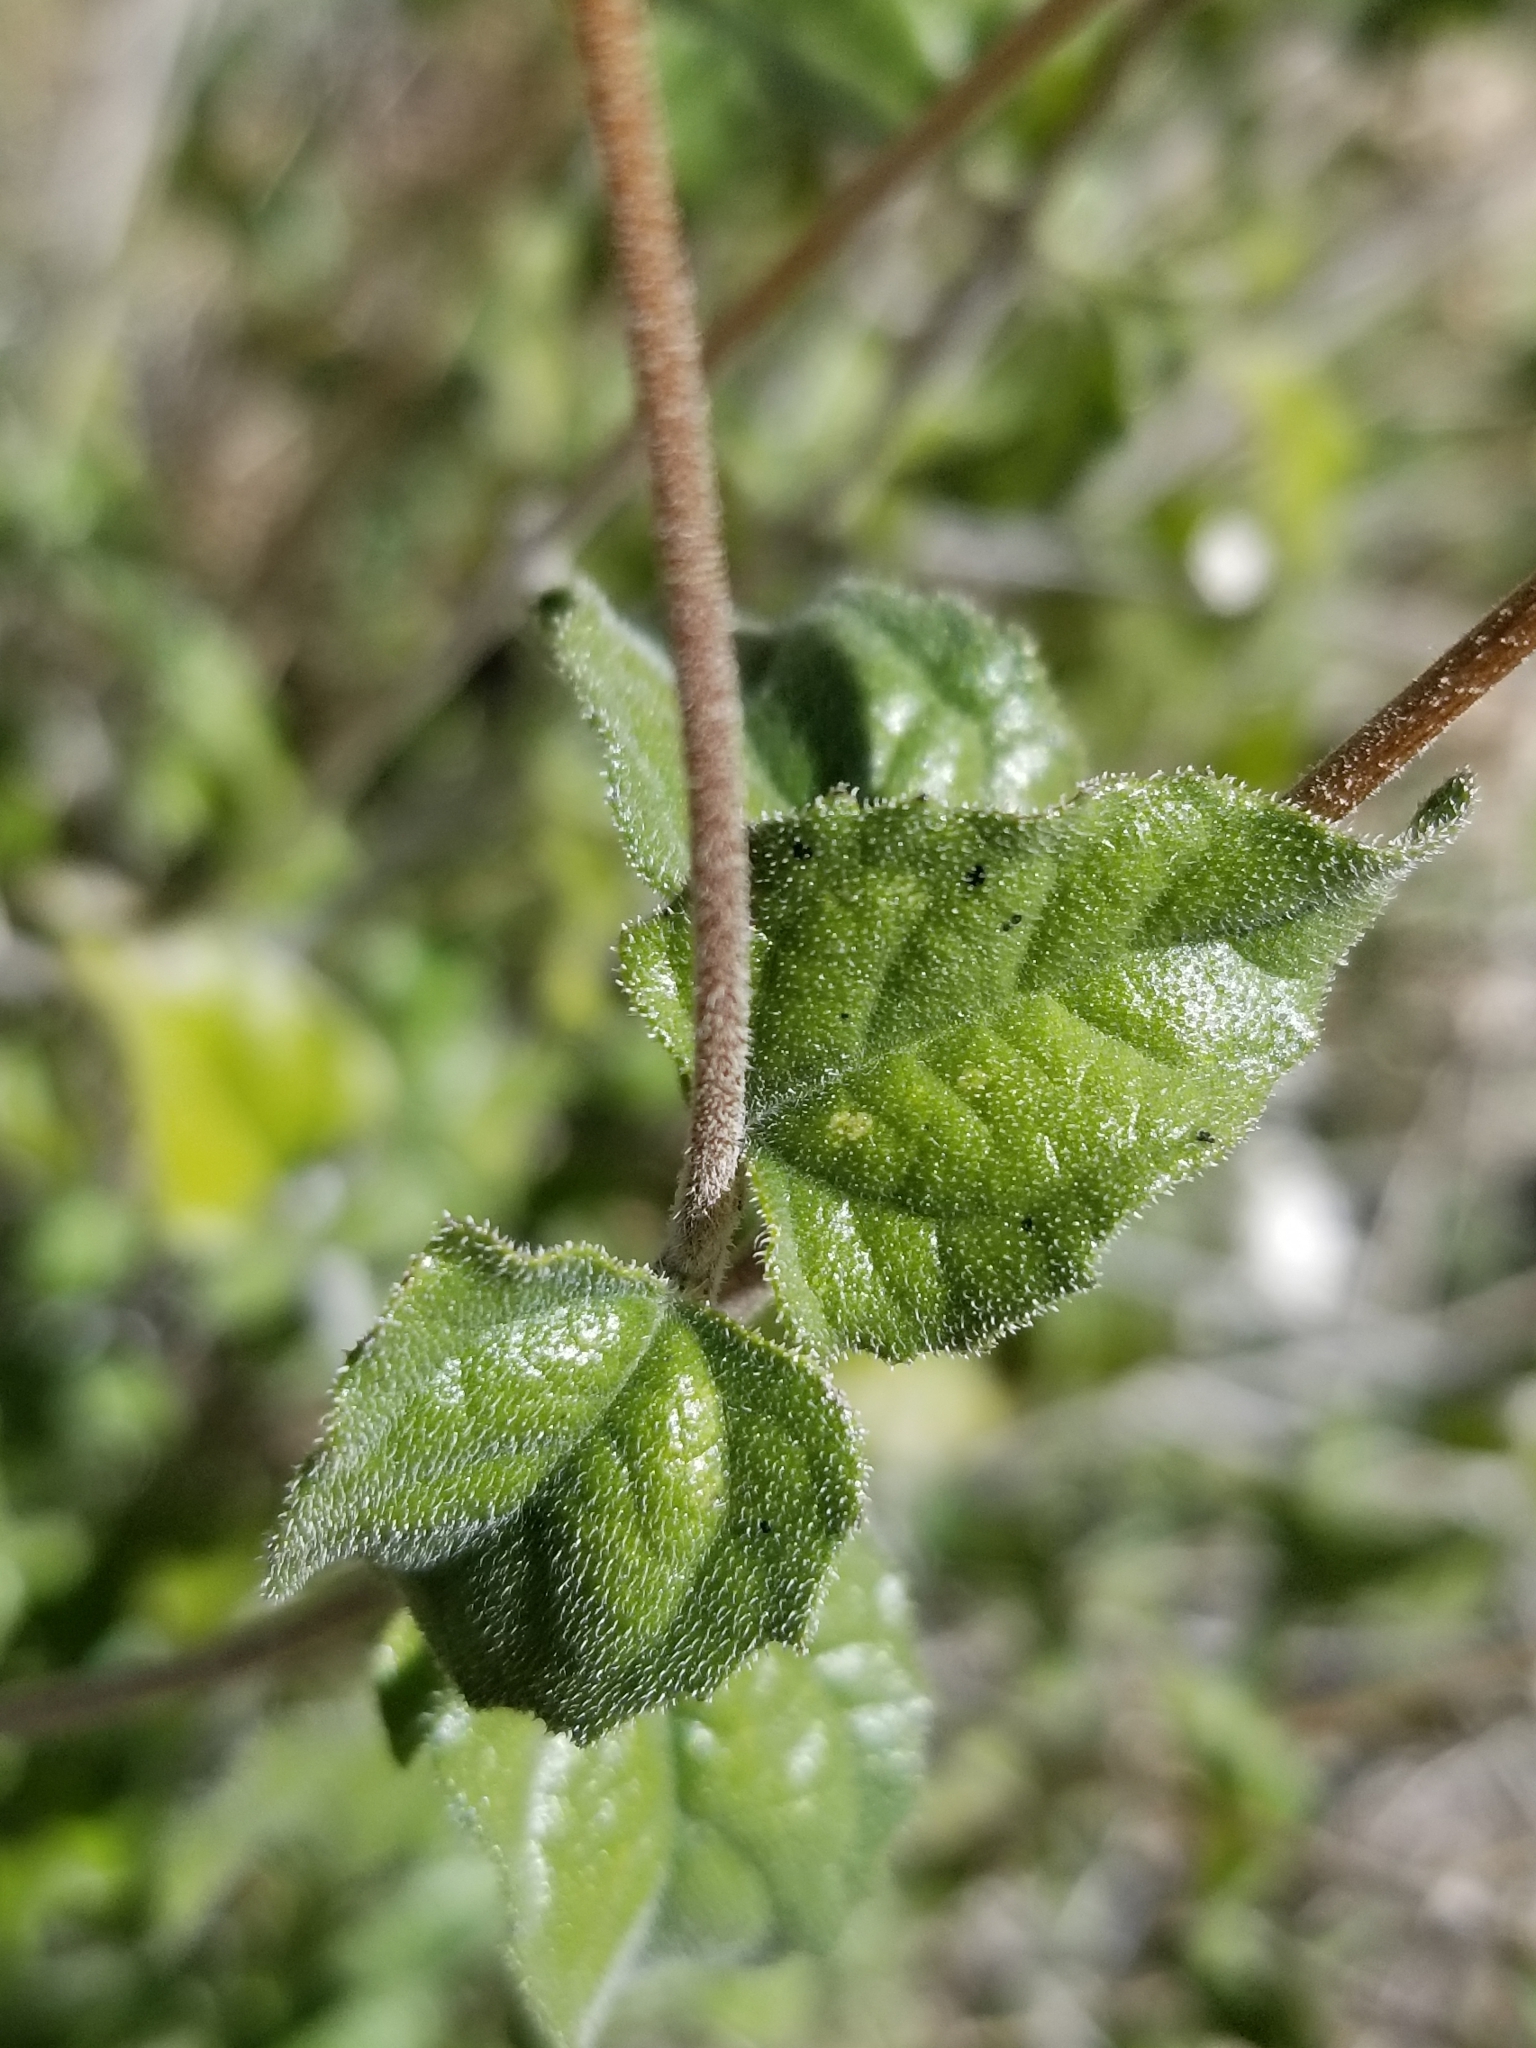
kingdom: Plantae
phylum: Tracheophyta
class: Magnoliopsida
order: Asterales
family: Asteraceae
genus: Bahiopsis
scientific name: Bahiopsis parishii
